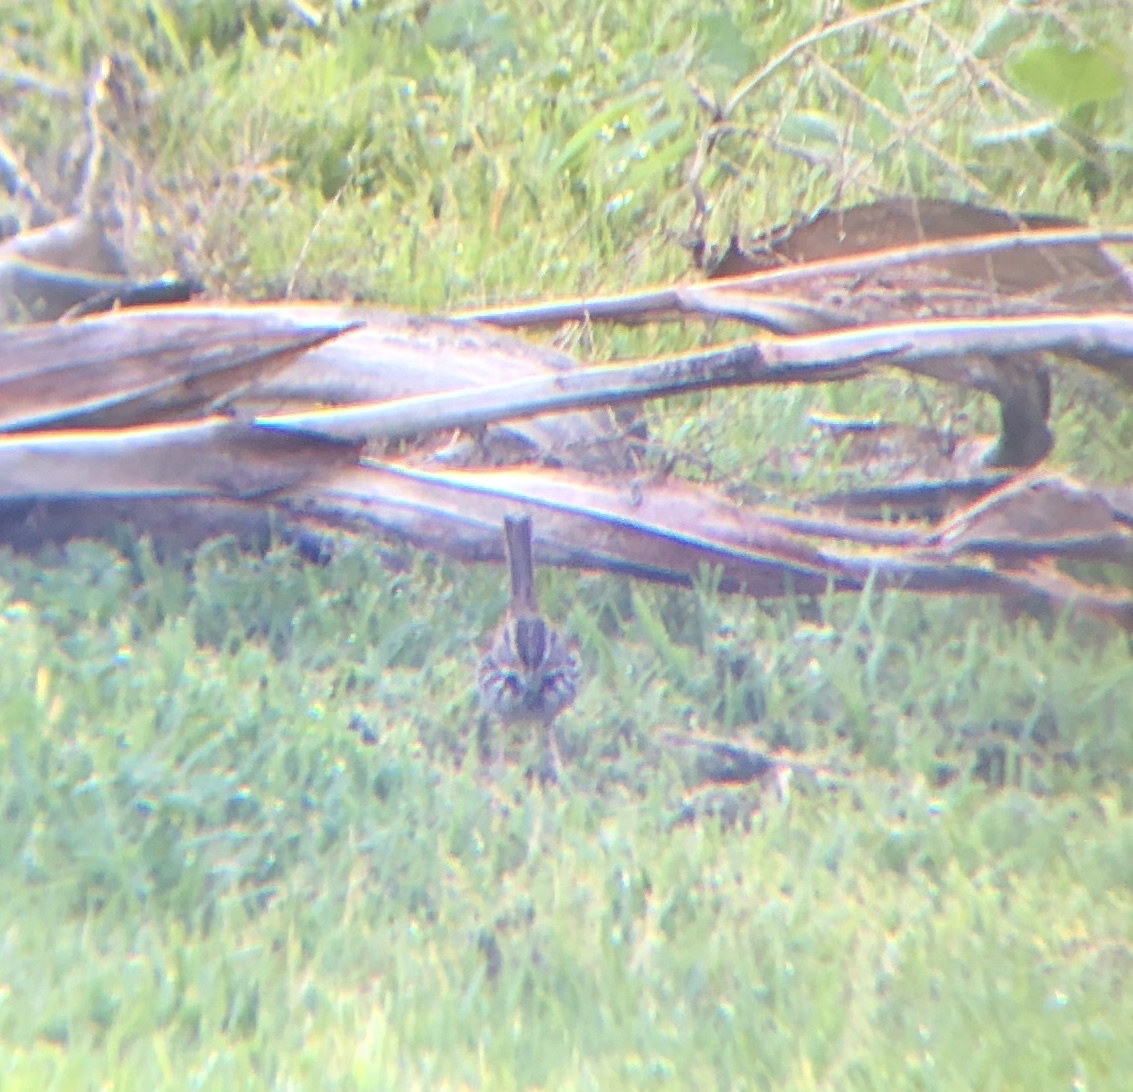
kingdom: Animalia
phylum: Chordata
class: Aves
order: Passeriformes
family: Passerellidae
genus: Melospiza
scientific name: Melospiza melodia
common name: Song sparrow
